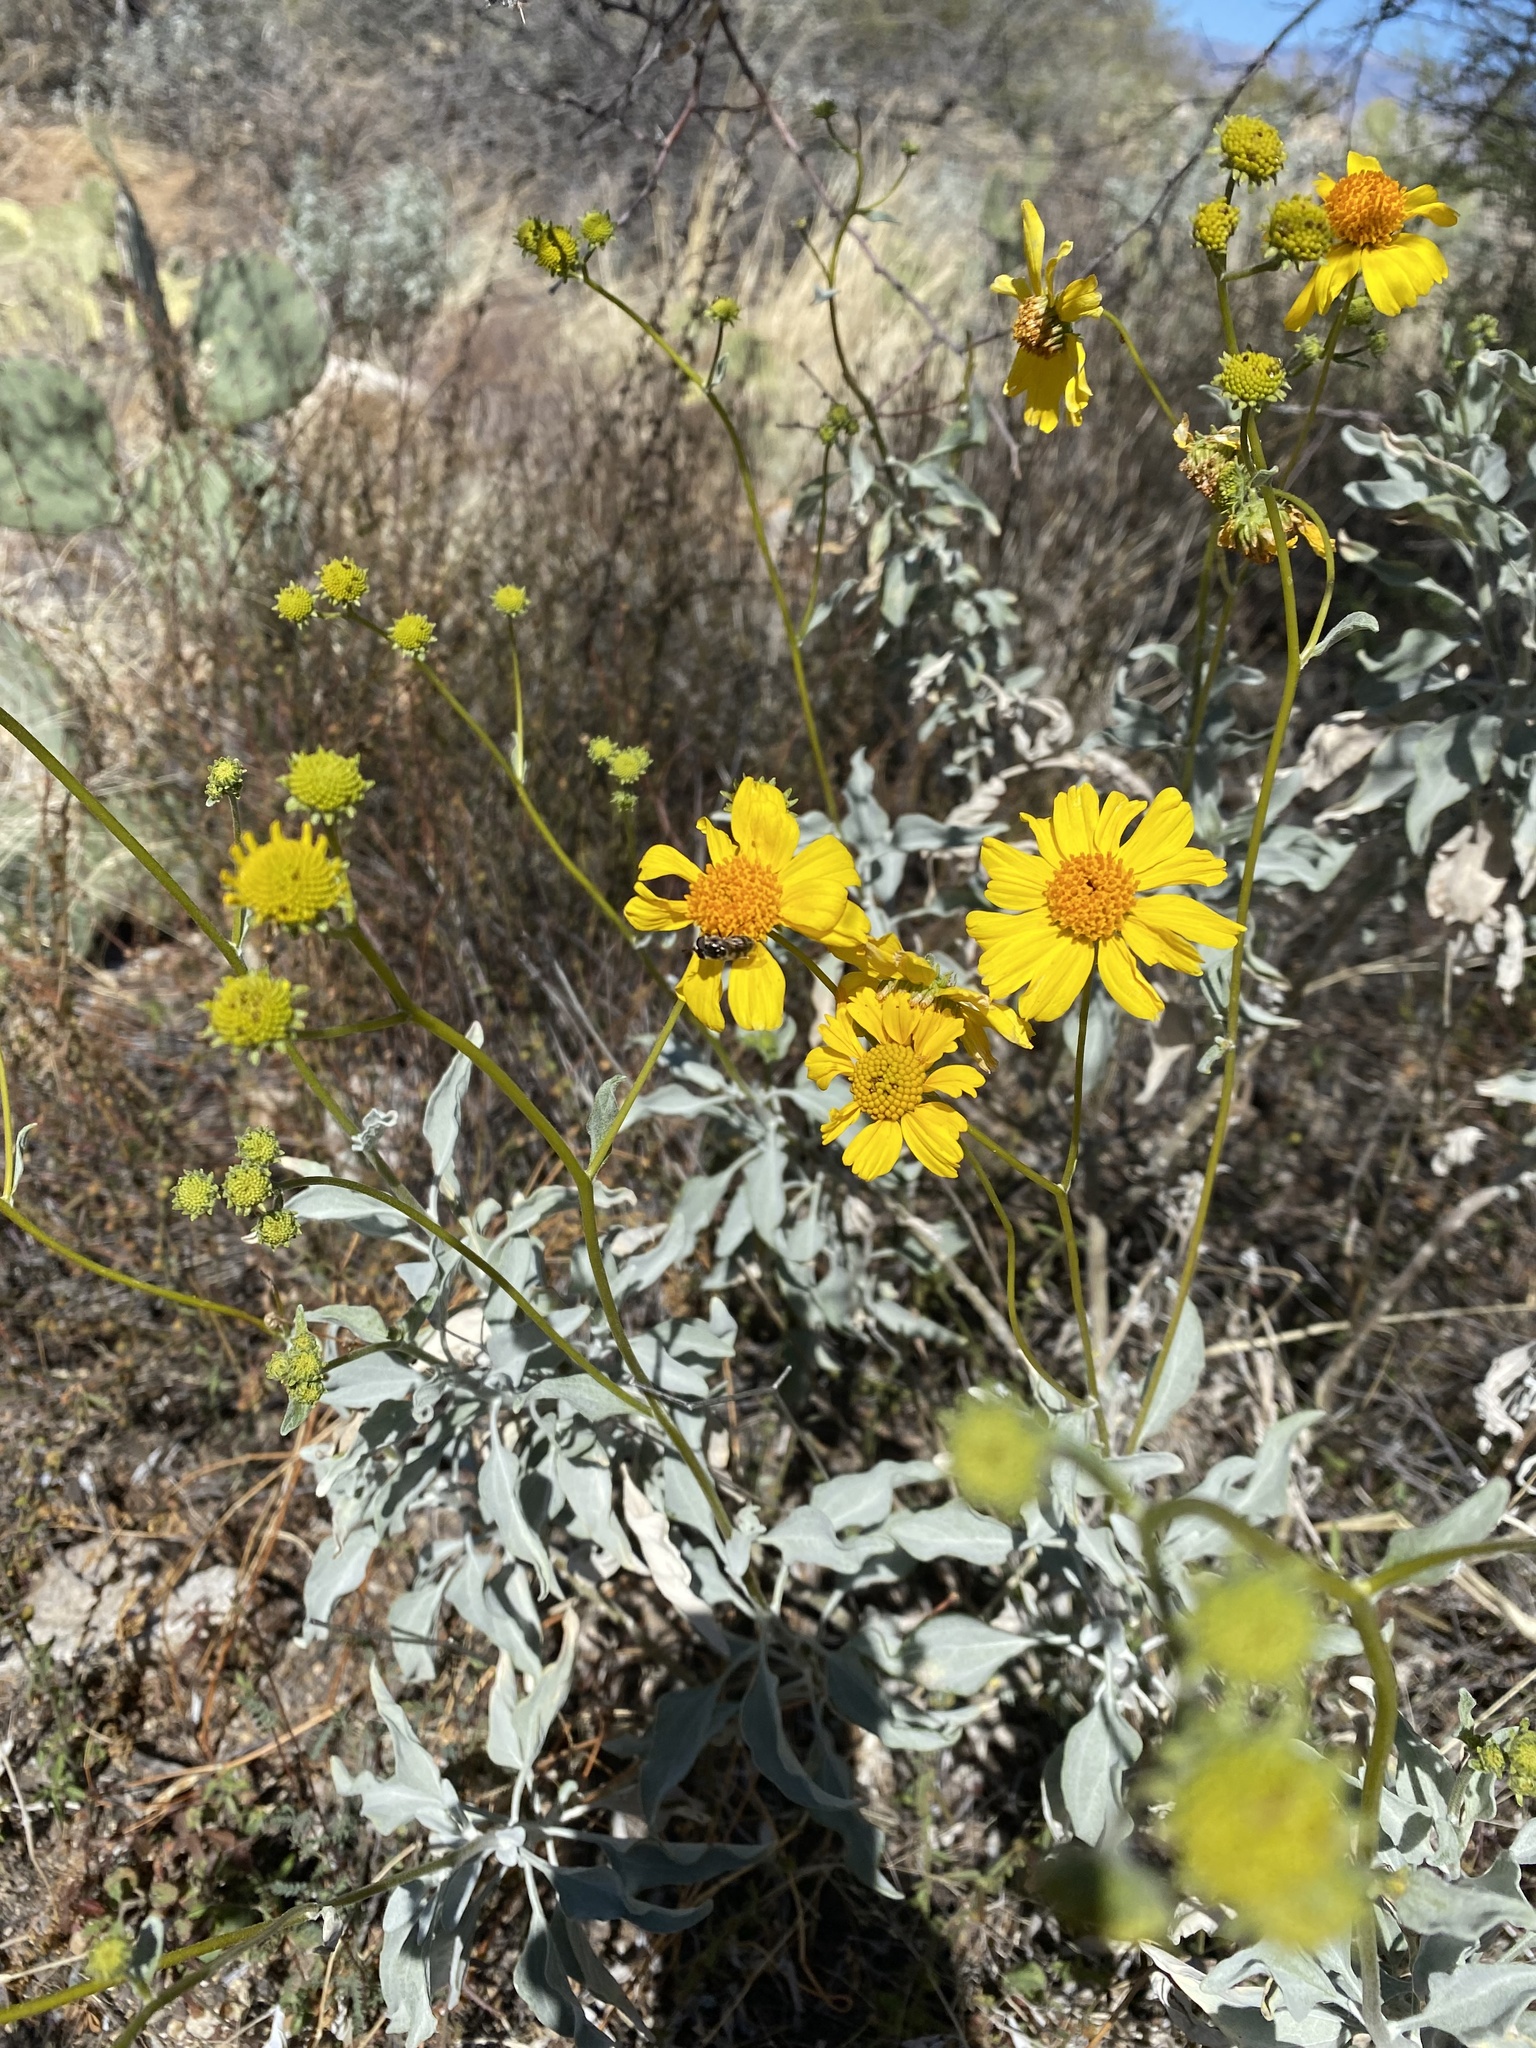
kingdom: Plantae
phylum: Tracheophyta
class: Magnoliopsida
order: Asterales
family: Asteraceae
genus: Encelia
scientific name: Encelia farinosa
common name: Brittlebush
